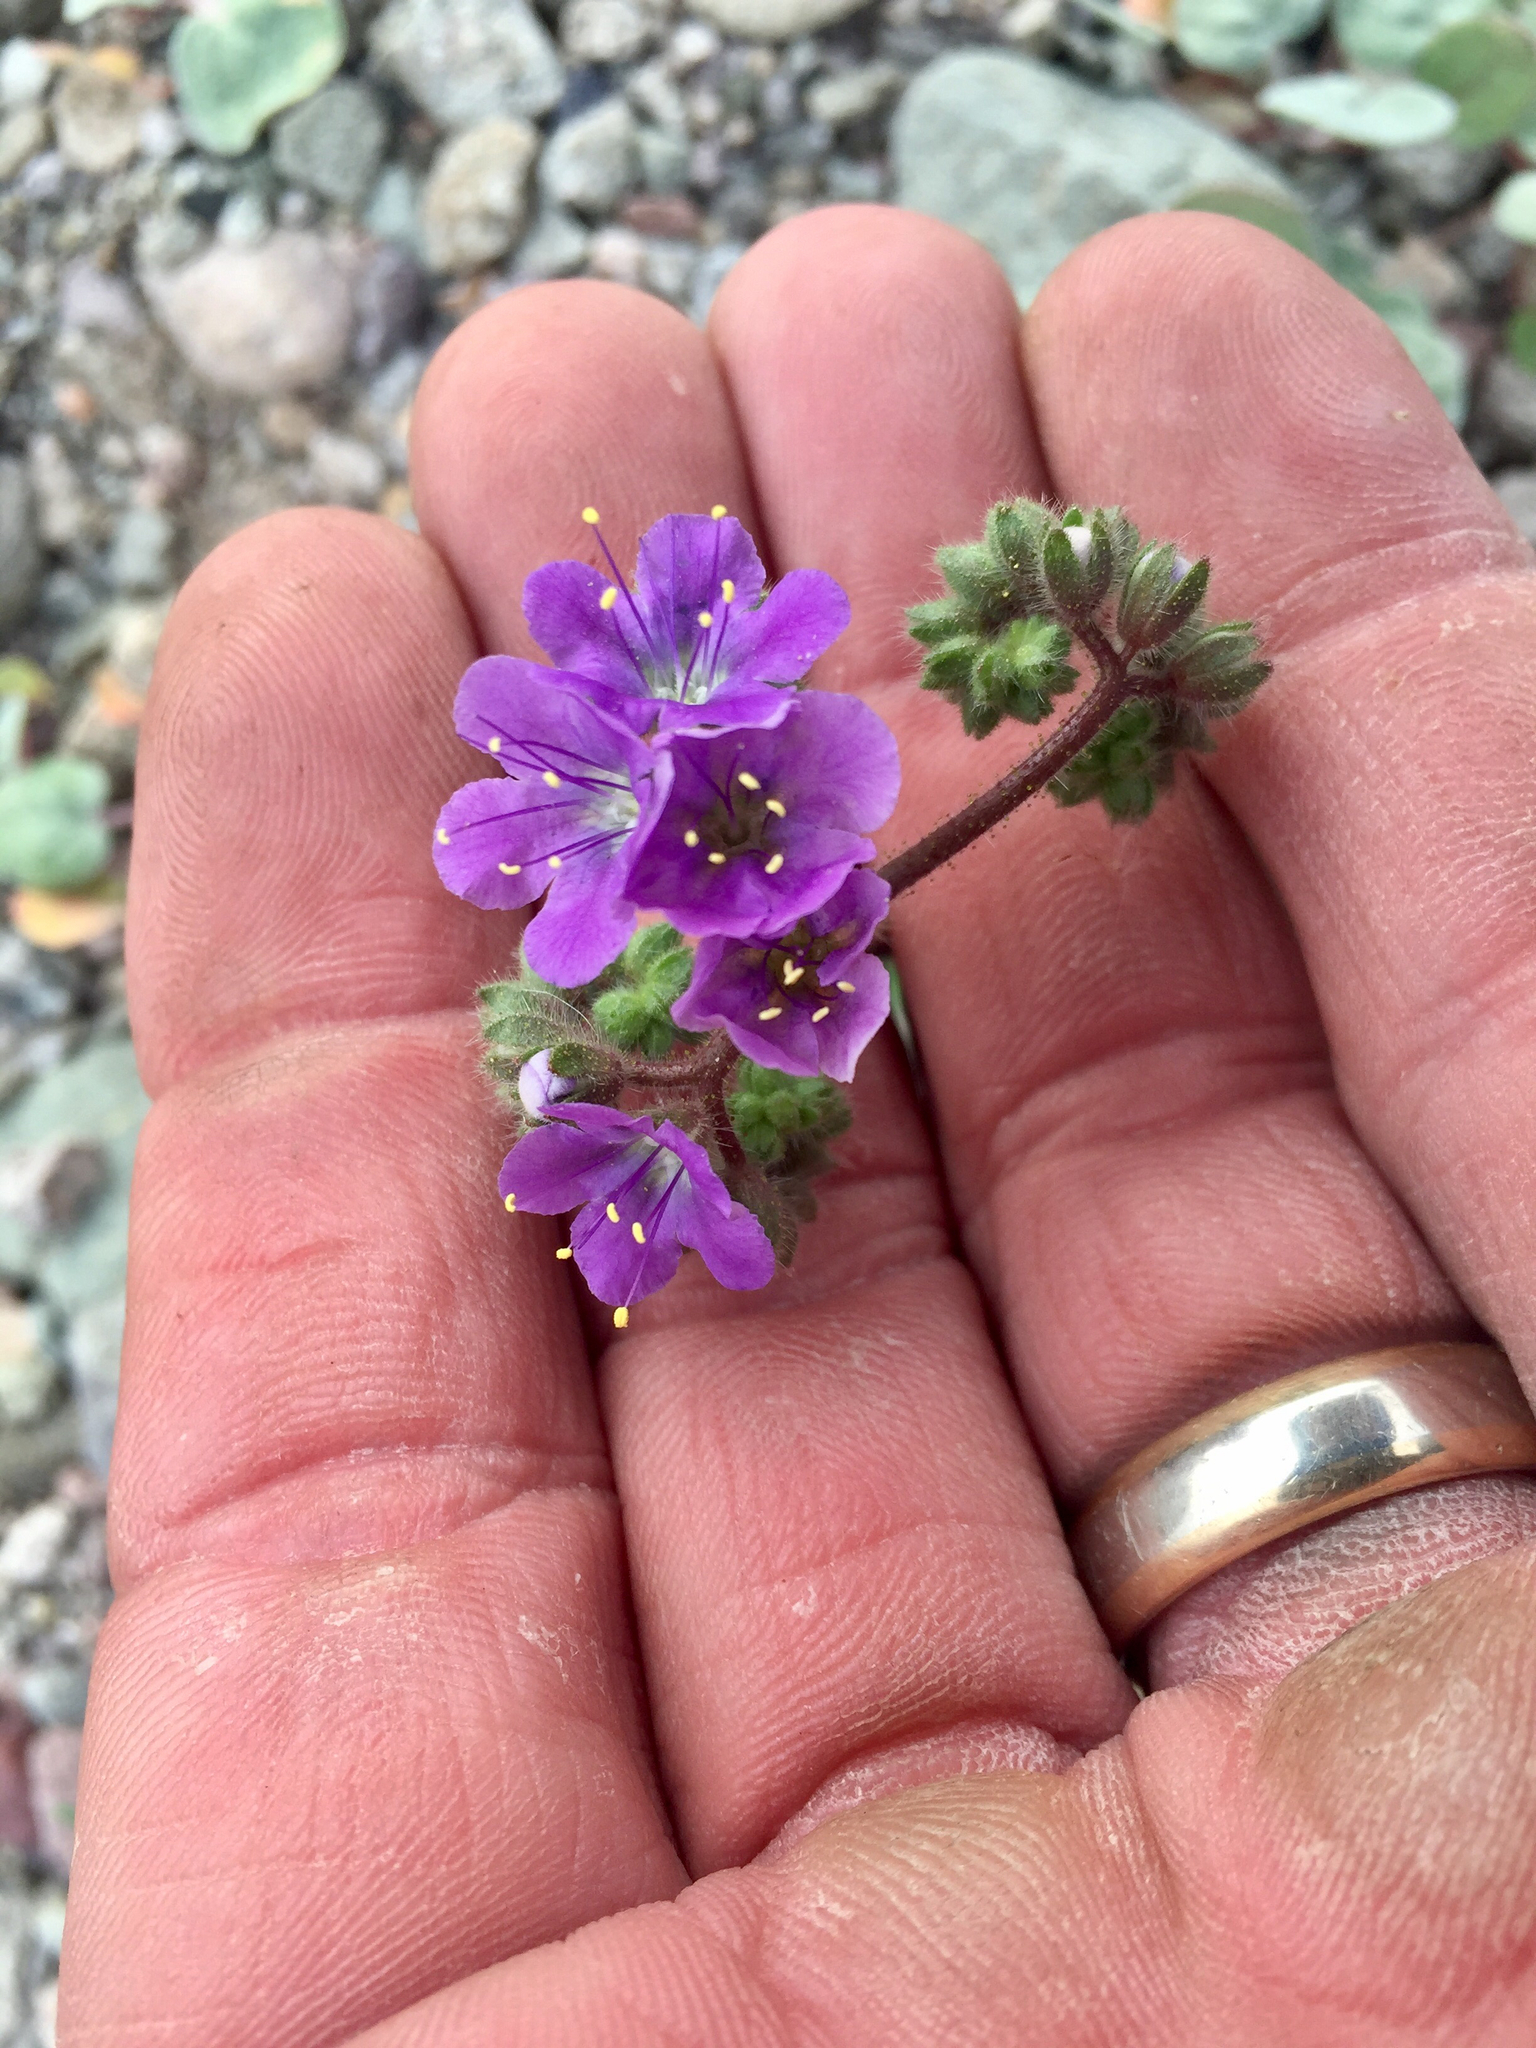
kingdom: Plantae
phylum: Tracheophyta
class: Magnoliopsida
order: Boraginales
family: Hydrophyllaceae
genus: Phacelia
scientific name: Phacelia crenulata
